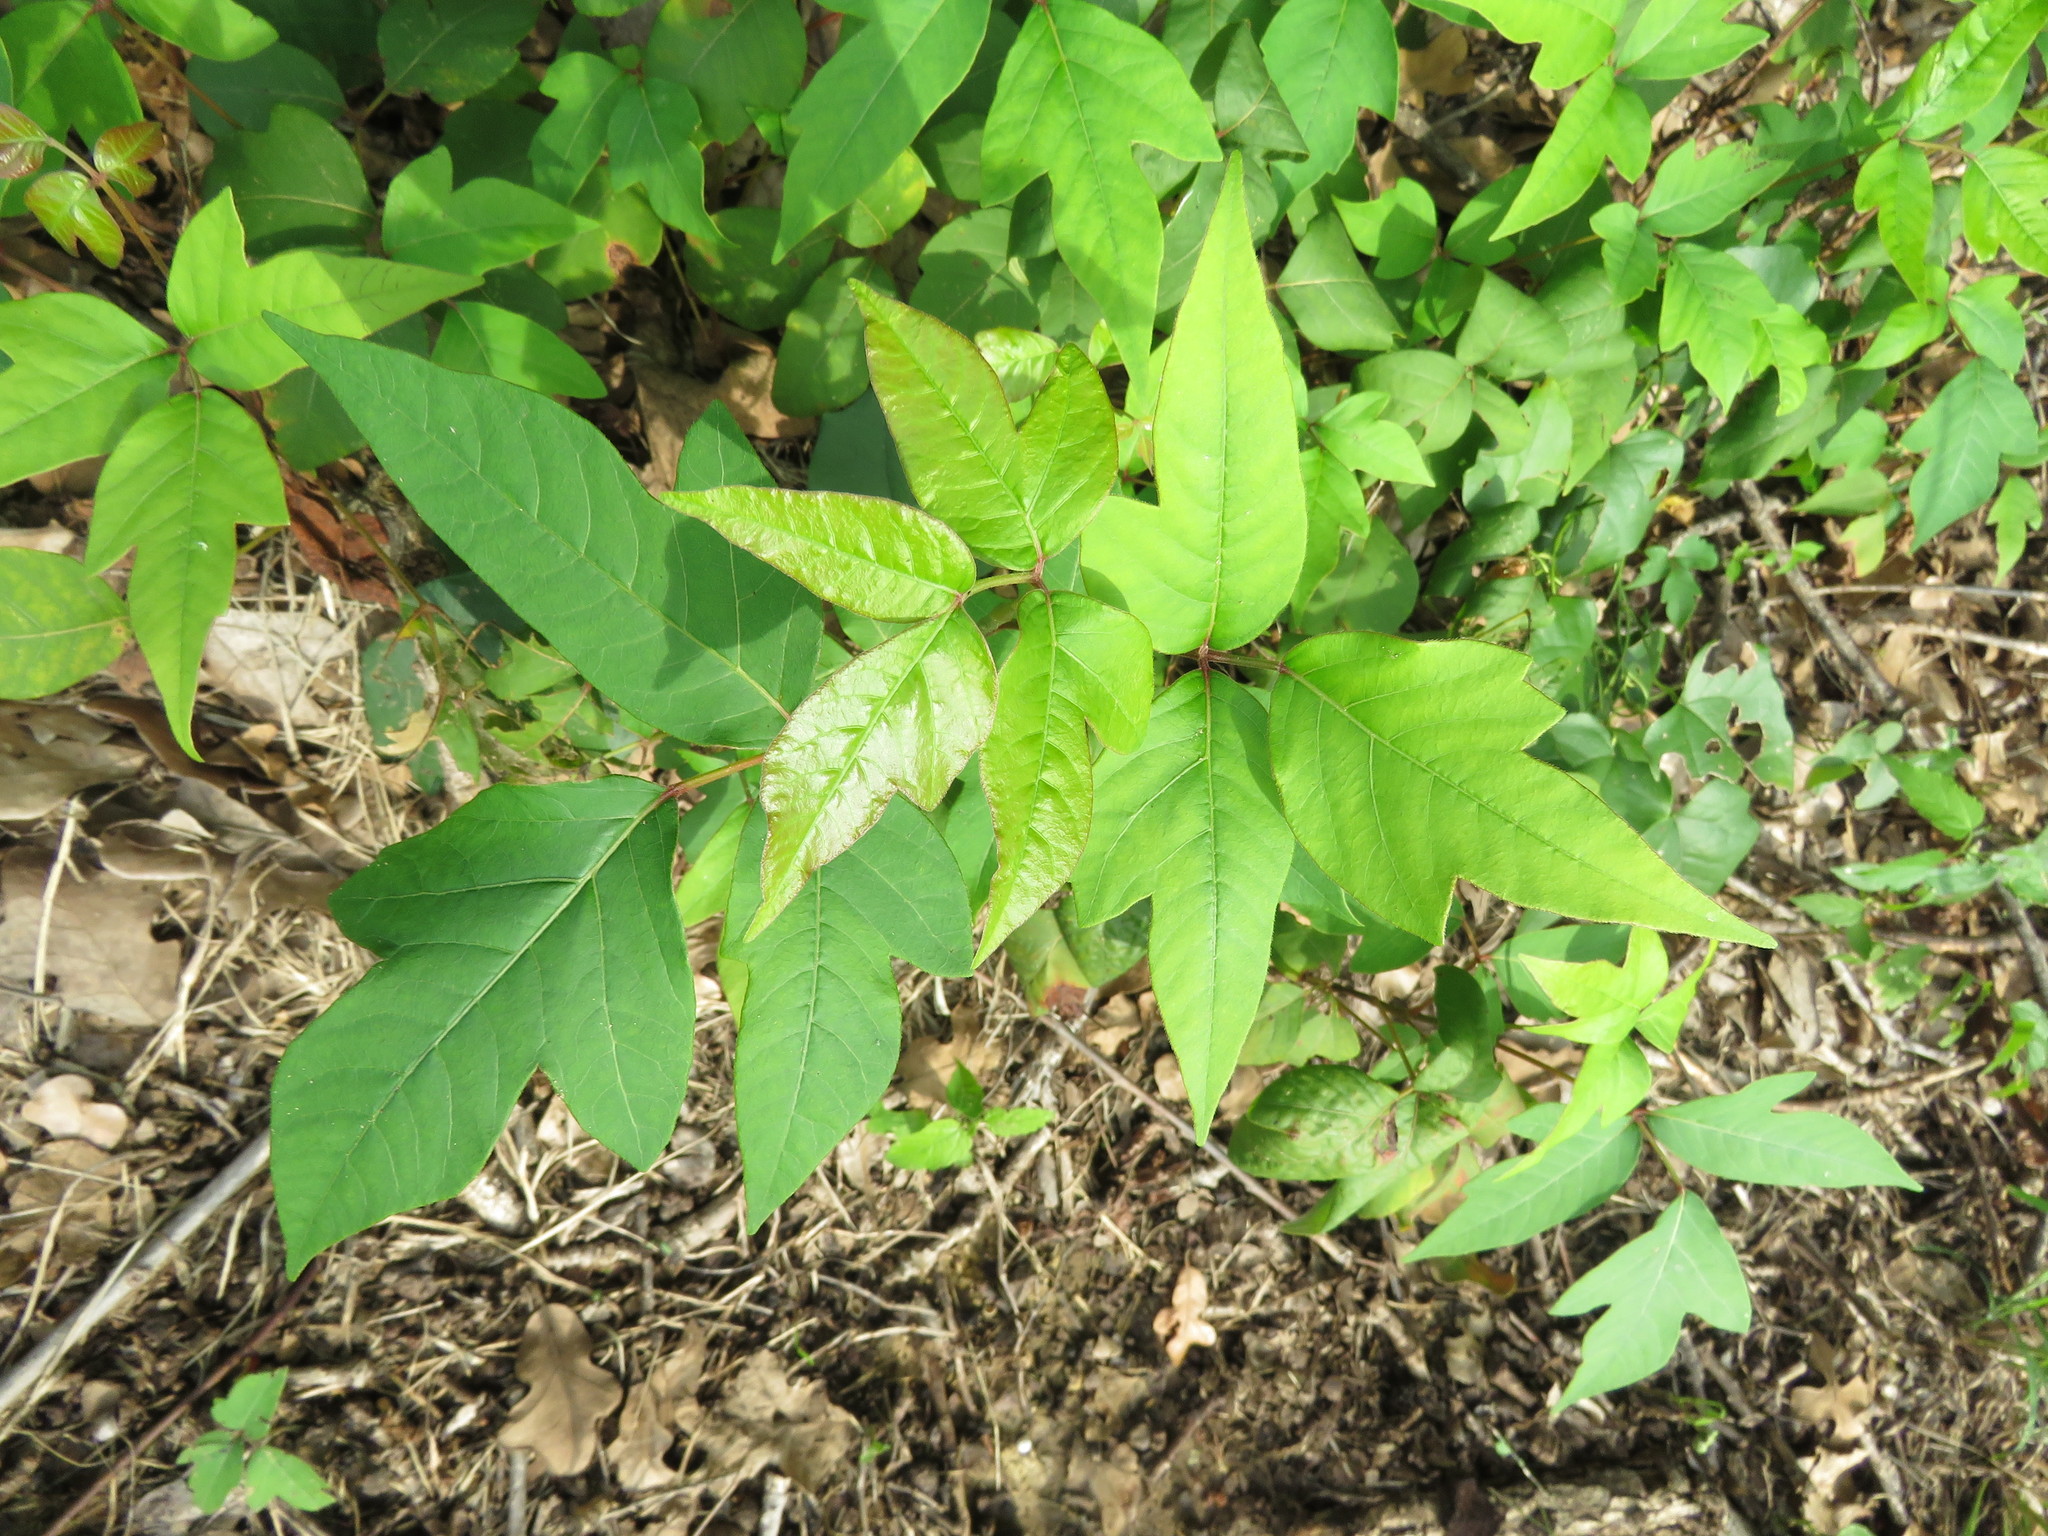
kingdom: Plantae
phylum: Tracheophyta
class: Magnoliopsida
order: Sapindales
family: Anacardiaceae
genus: Toxicodendron
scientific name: Toxicodendron radicans
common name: Poison ivy
